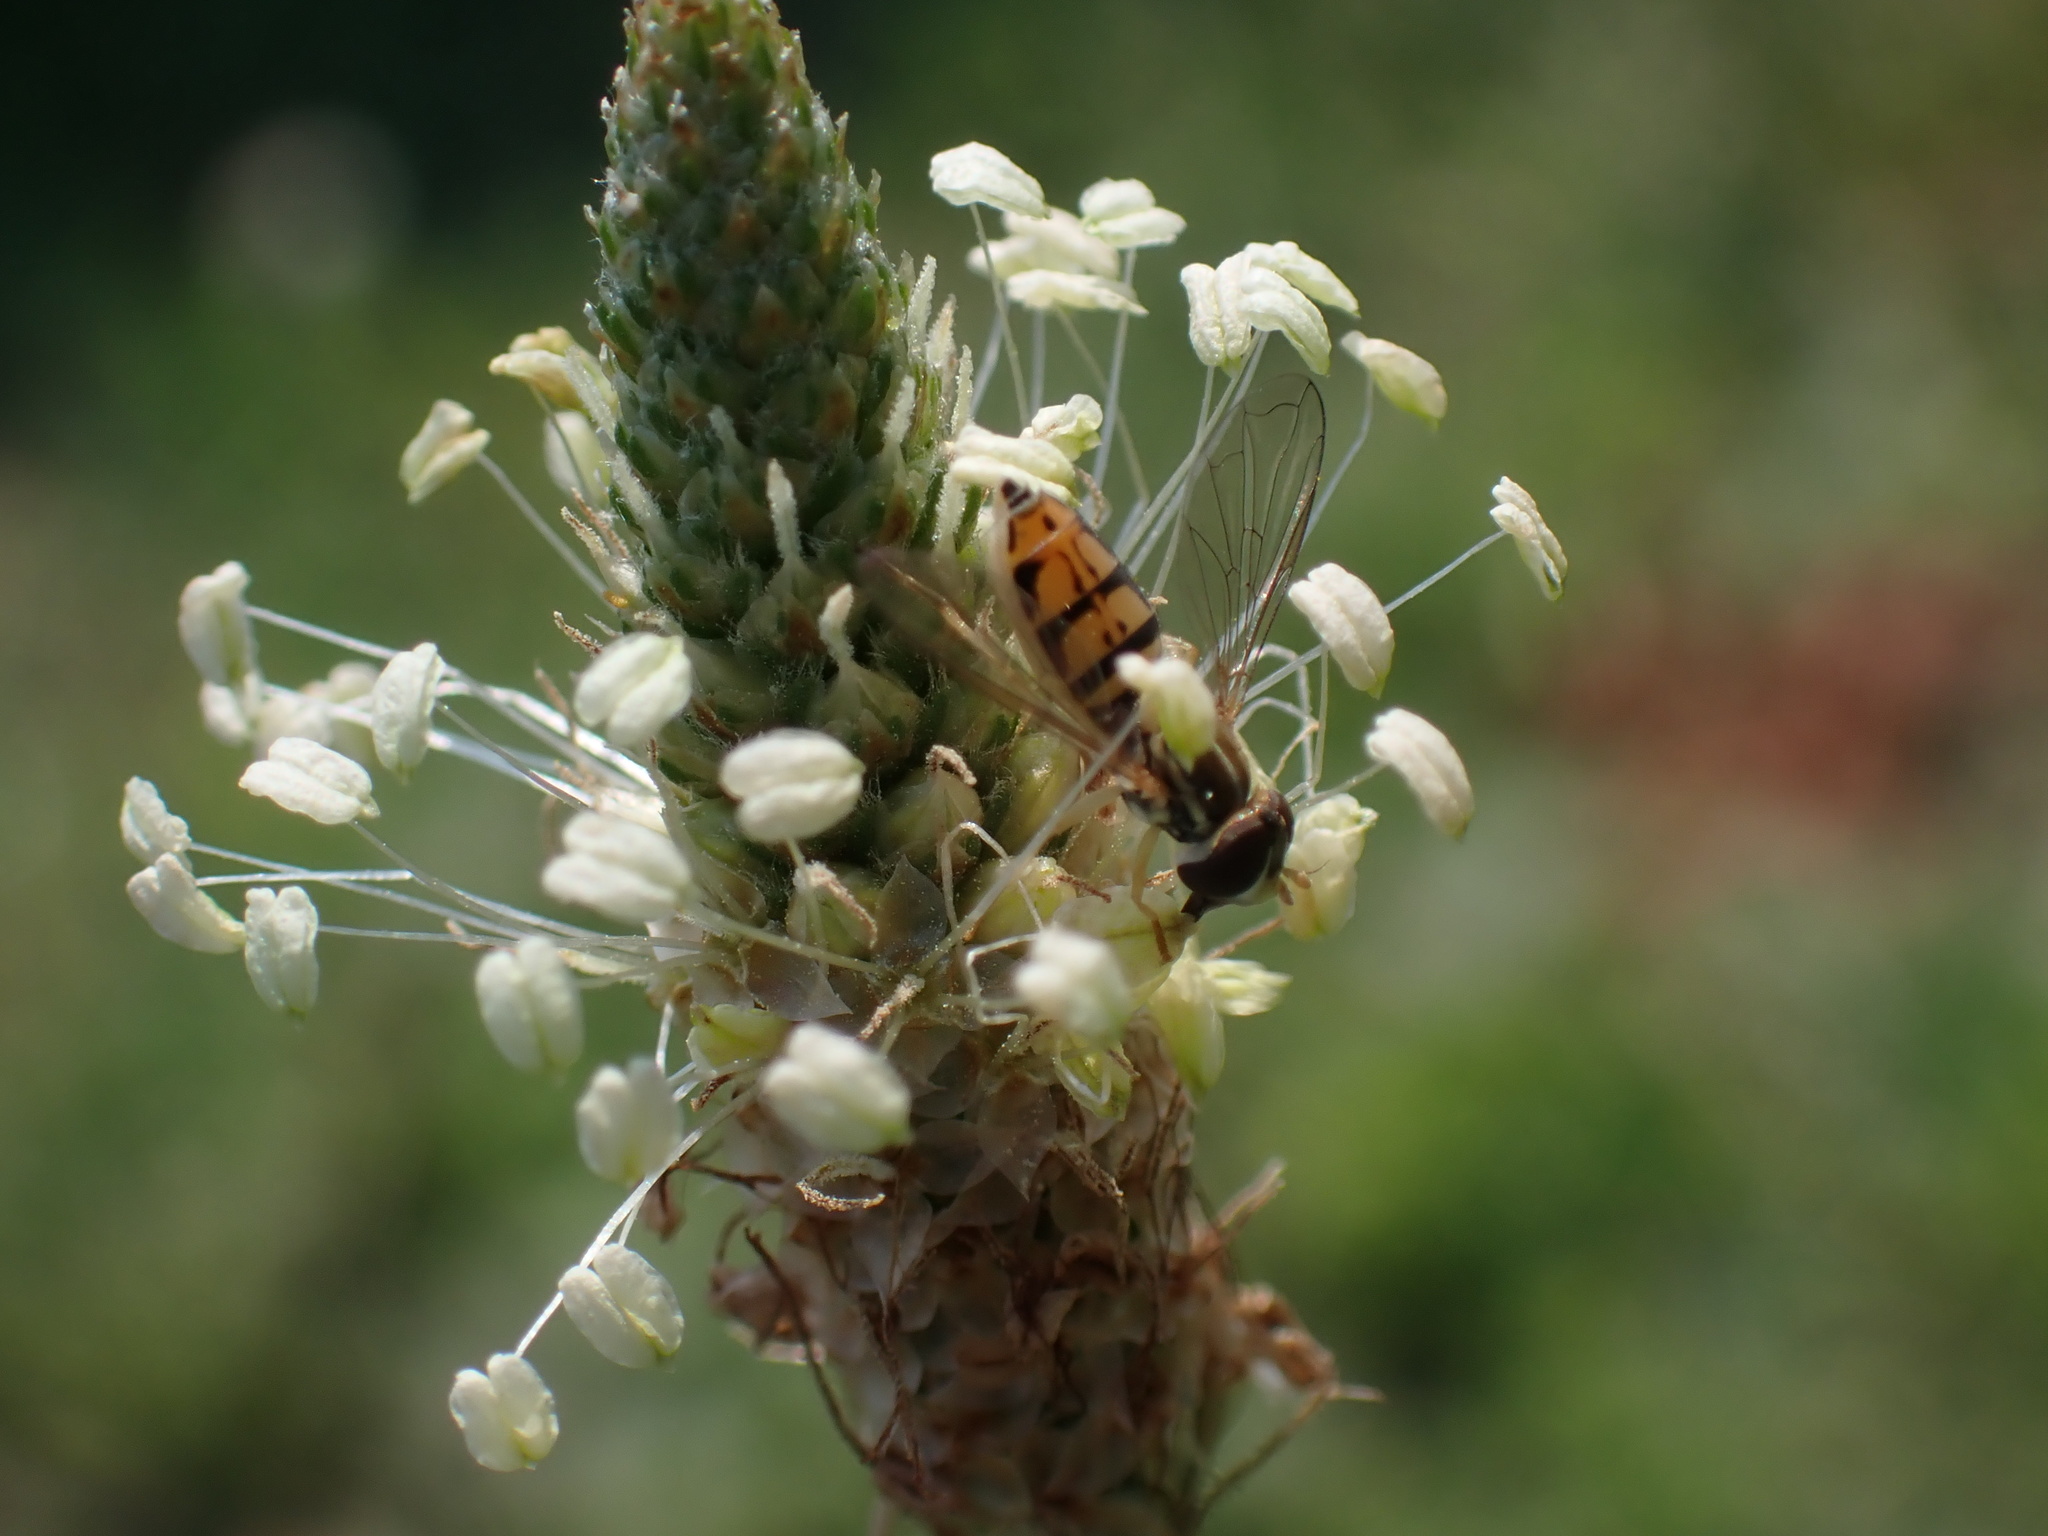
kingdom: Animalia
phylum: Arthropoda
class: Insecta
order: Diptera
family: Syrphidae
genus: Toxomerus
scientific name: Toxomerus marginatus
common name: Syrphid fly
